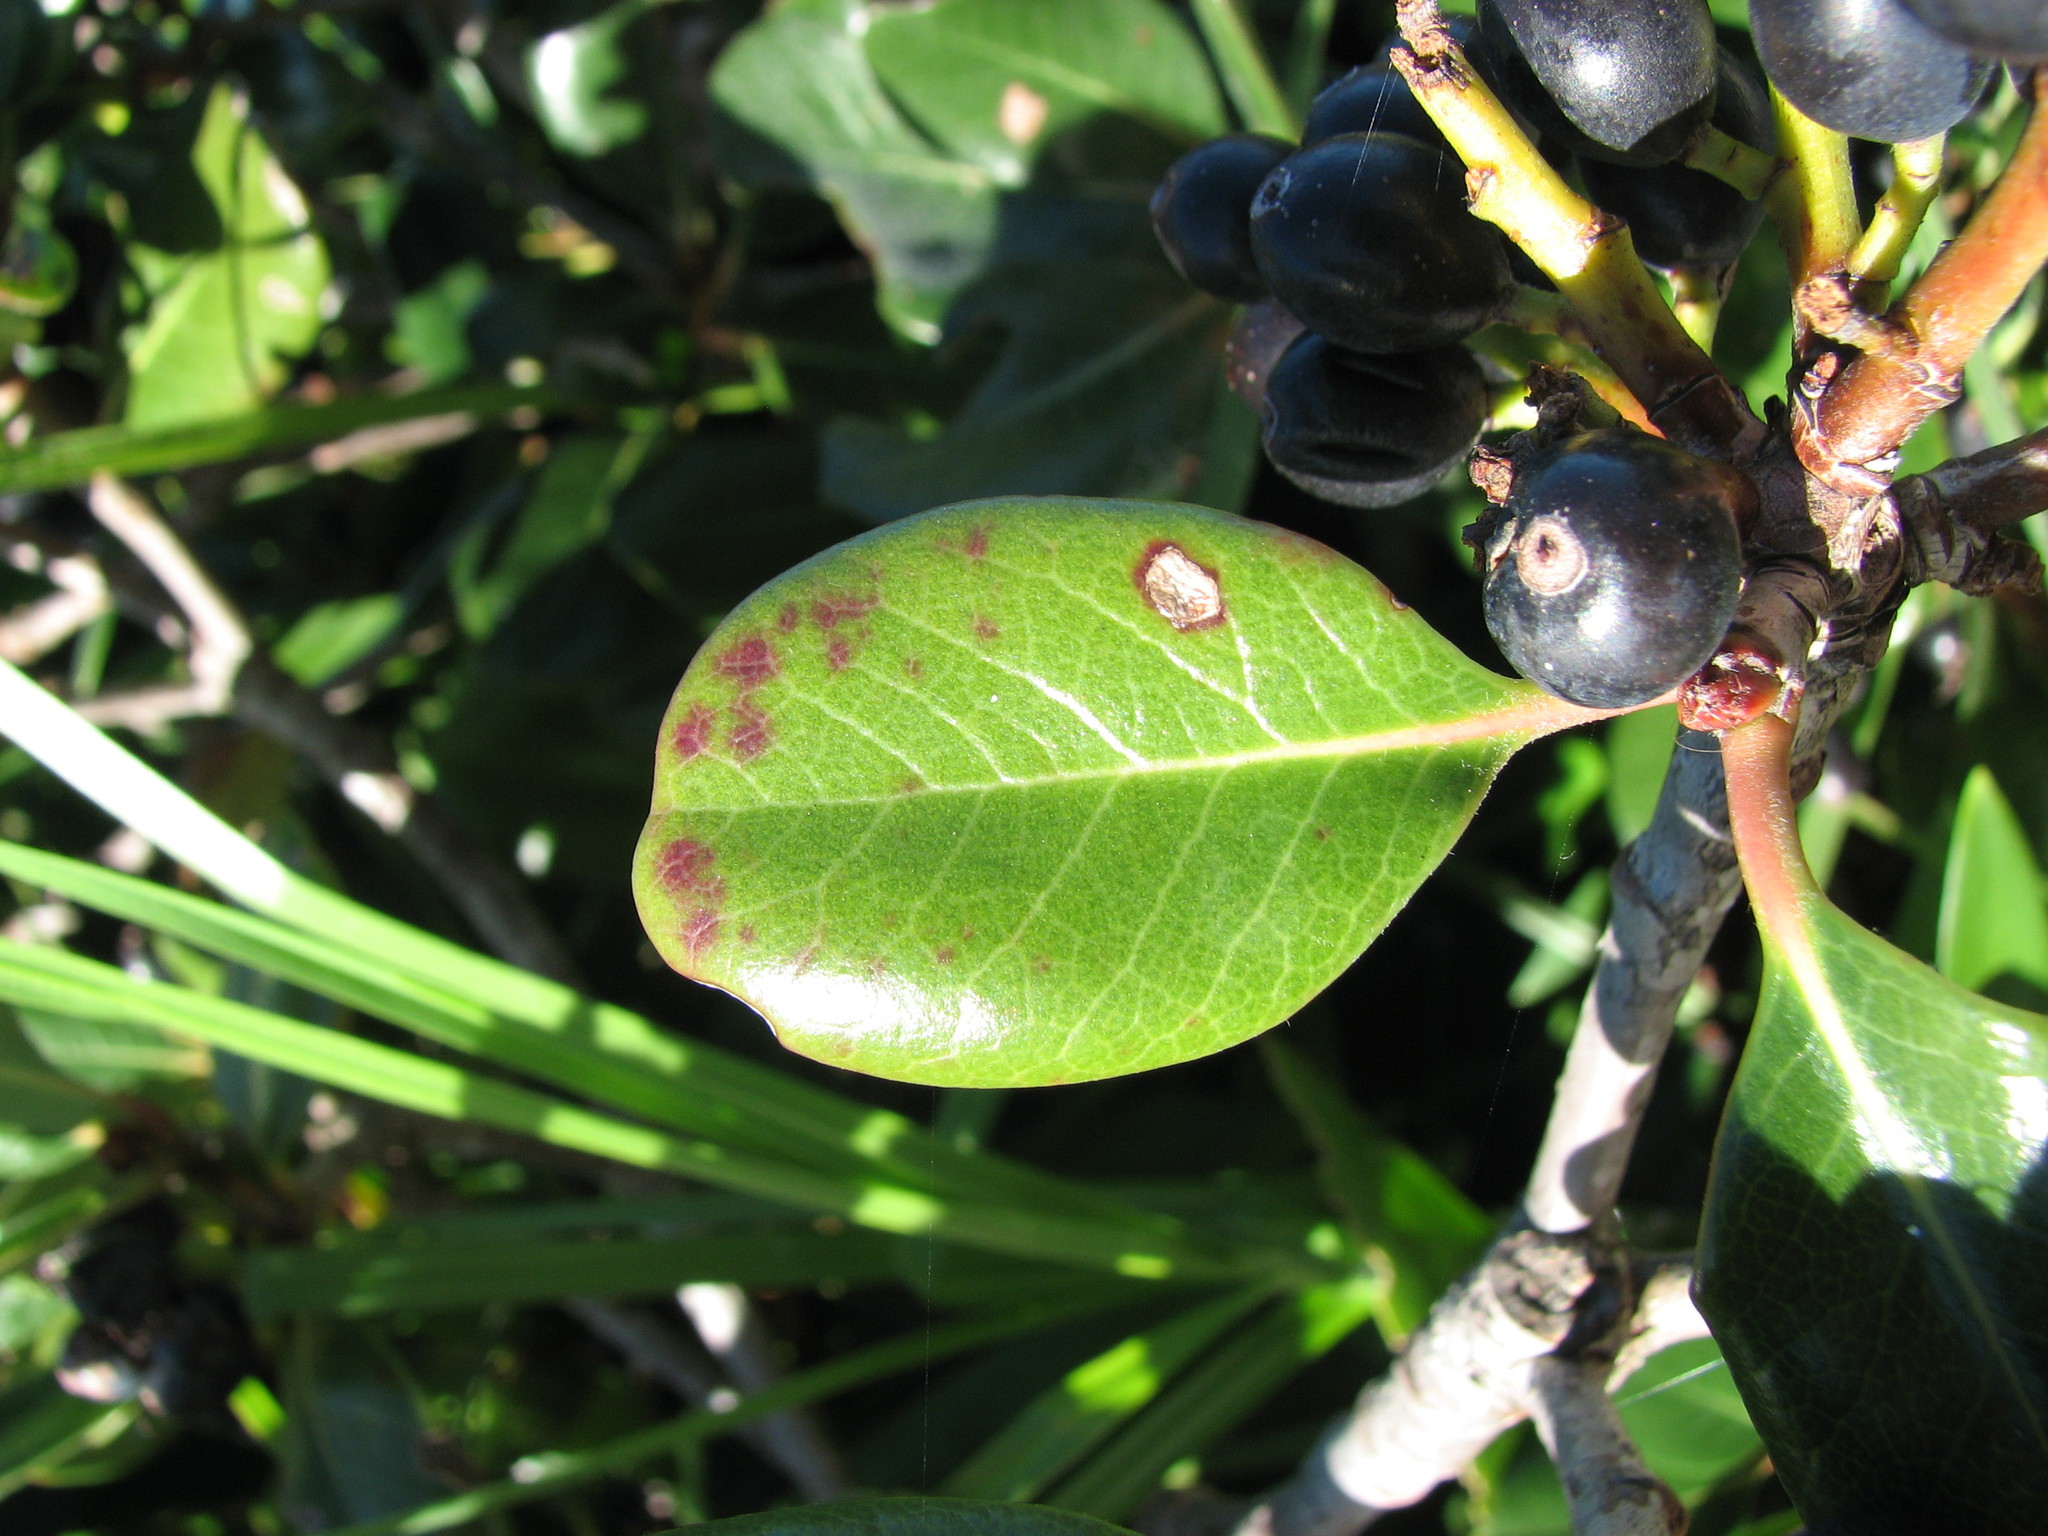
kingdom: Plantae
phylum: Tracheophyta
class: Magnoliopsida
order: Rosales
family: Rosaceae
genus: Rhaphiolepis
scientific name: Rhaphiolepis indica
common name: India-hawthorn
